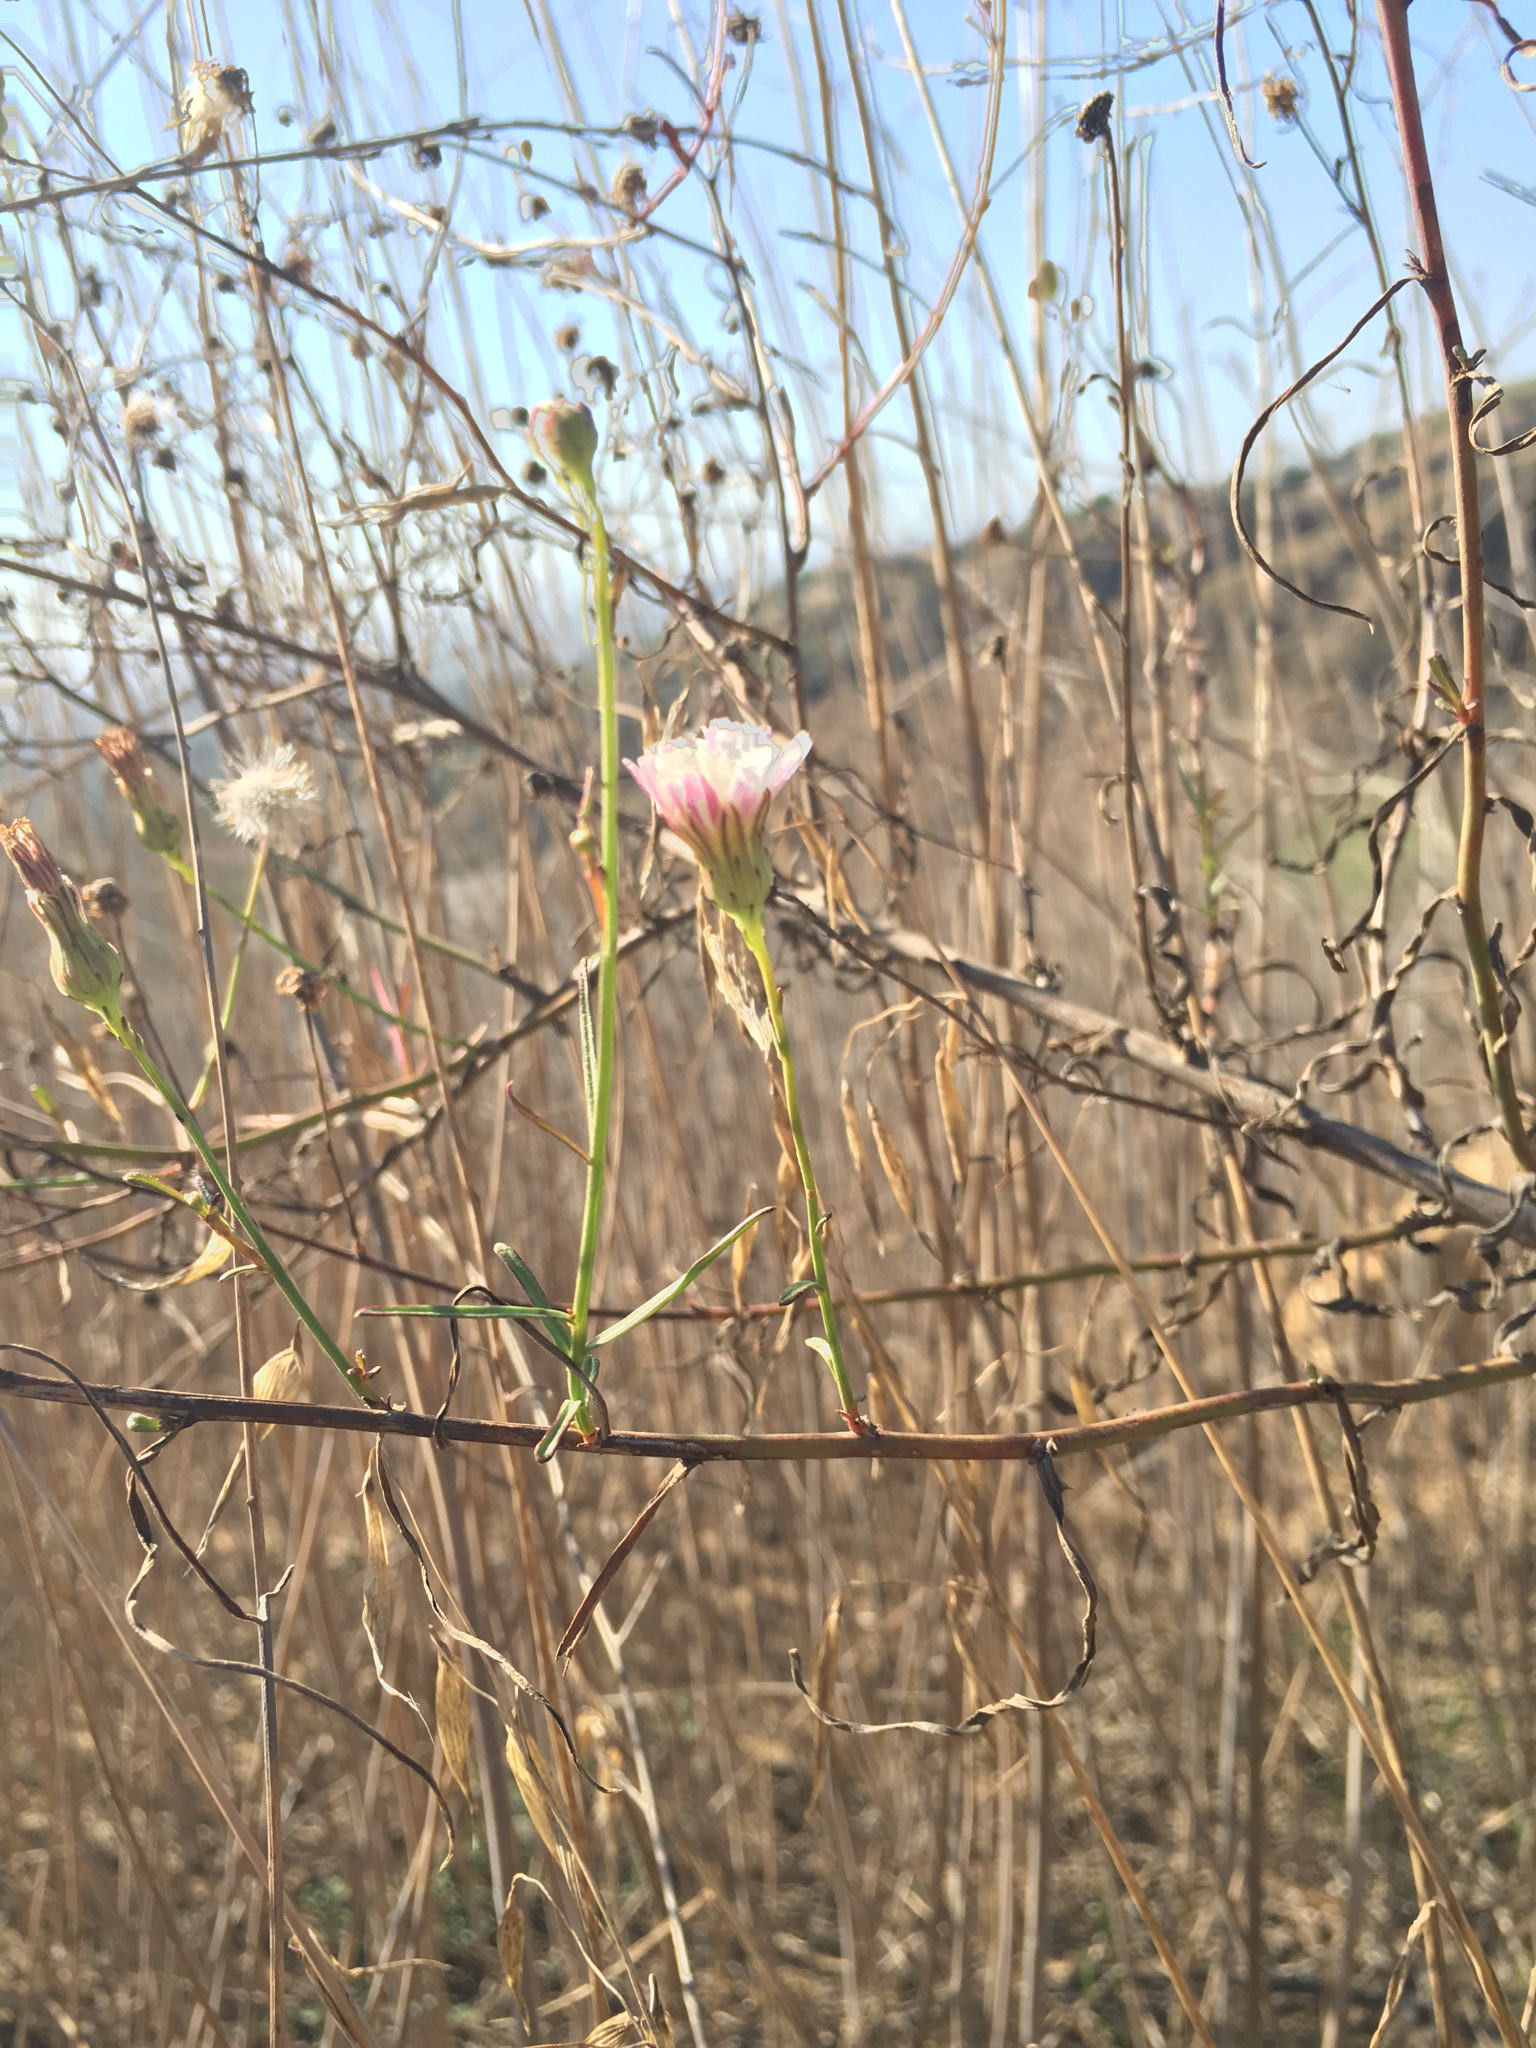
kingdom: Plantae
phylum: Tracheophyta
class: Magnoliopsida
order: Asterales
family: Asteraceae
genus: Malacothrix
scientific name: Malacothrix saxatilis
